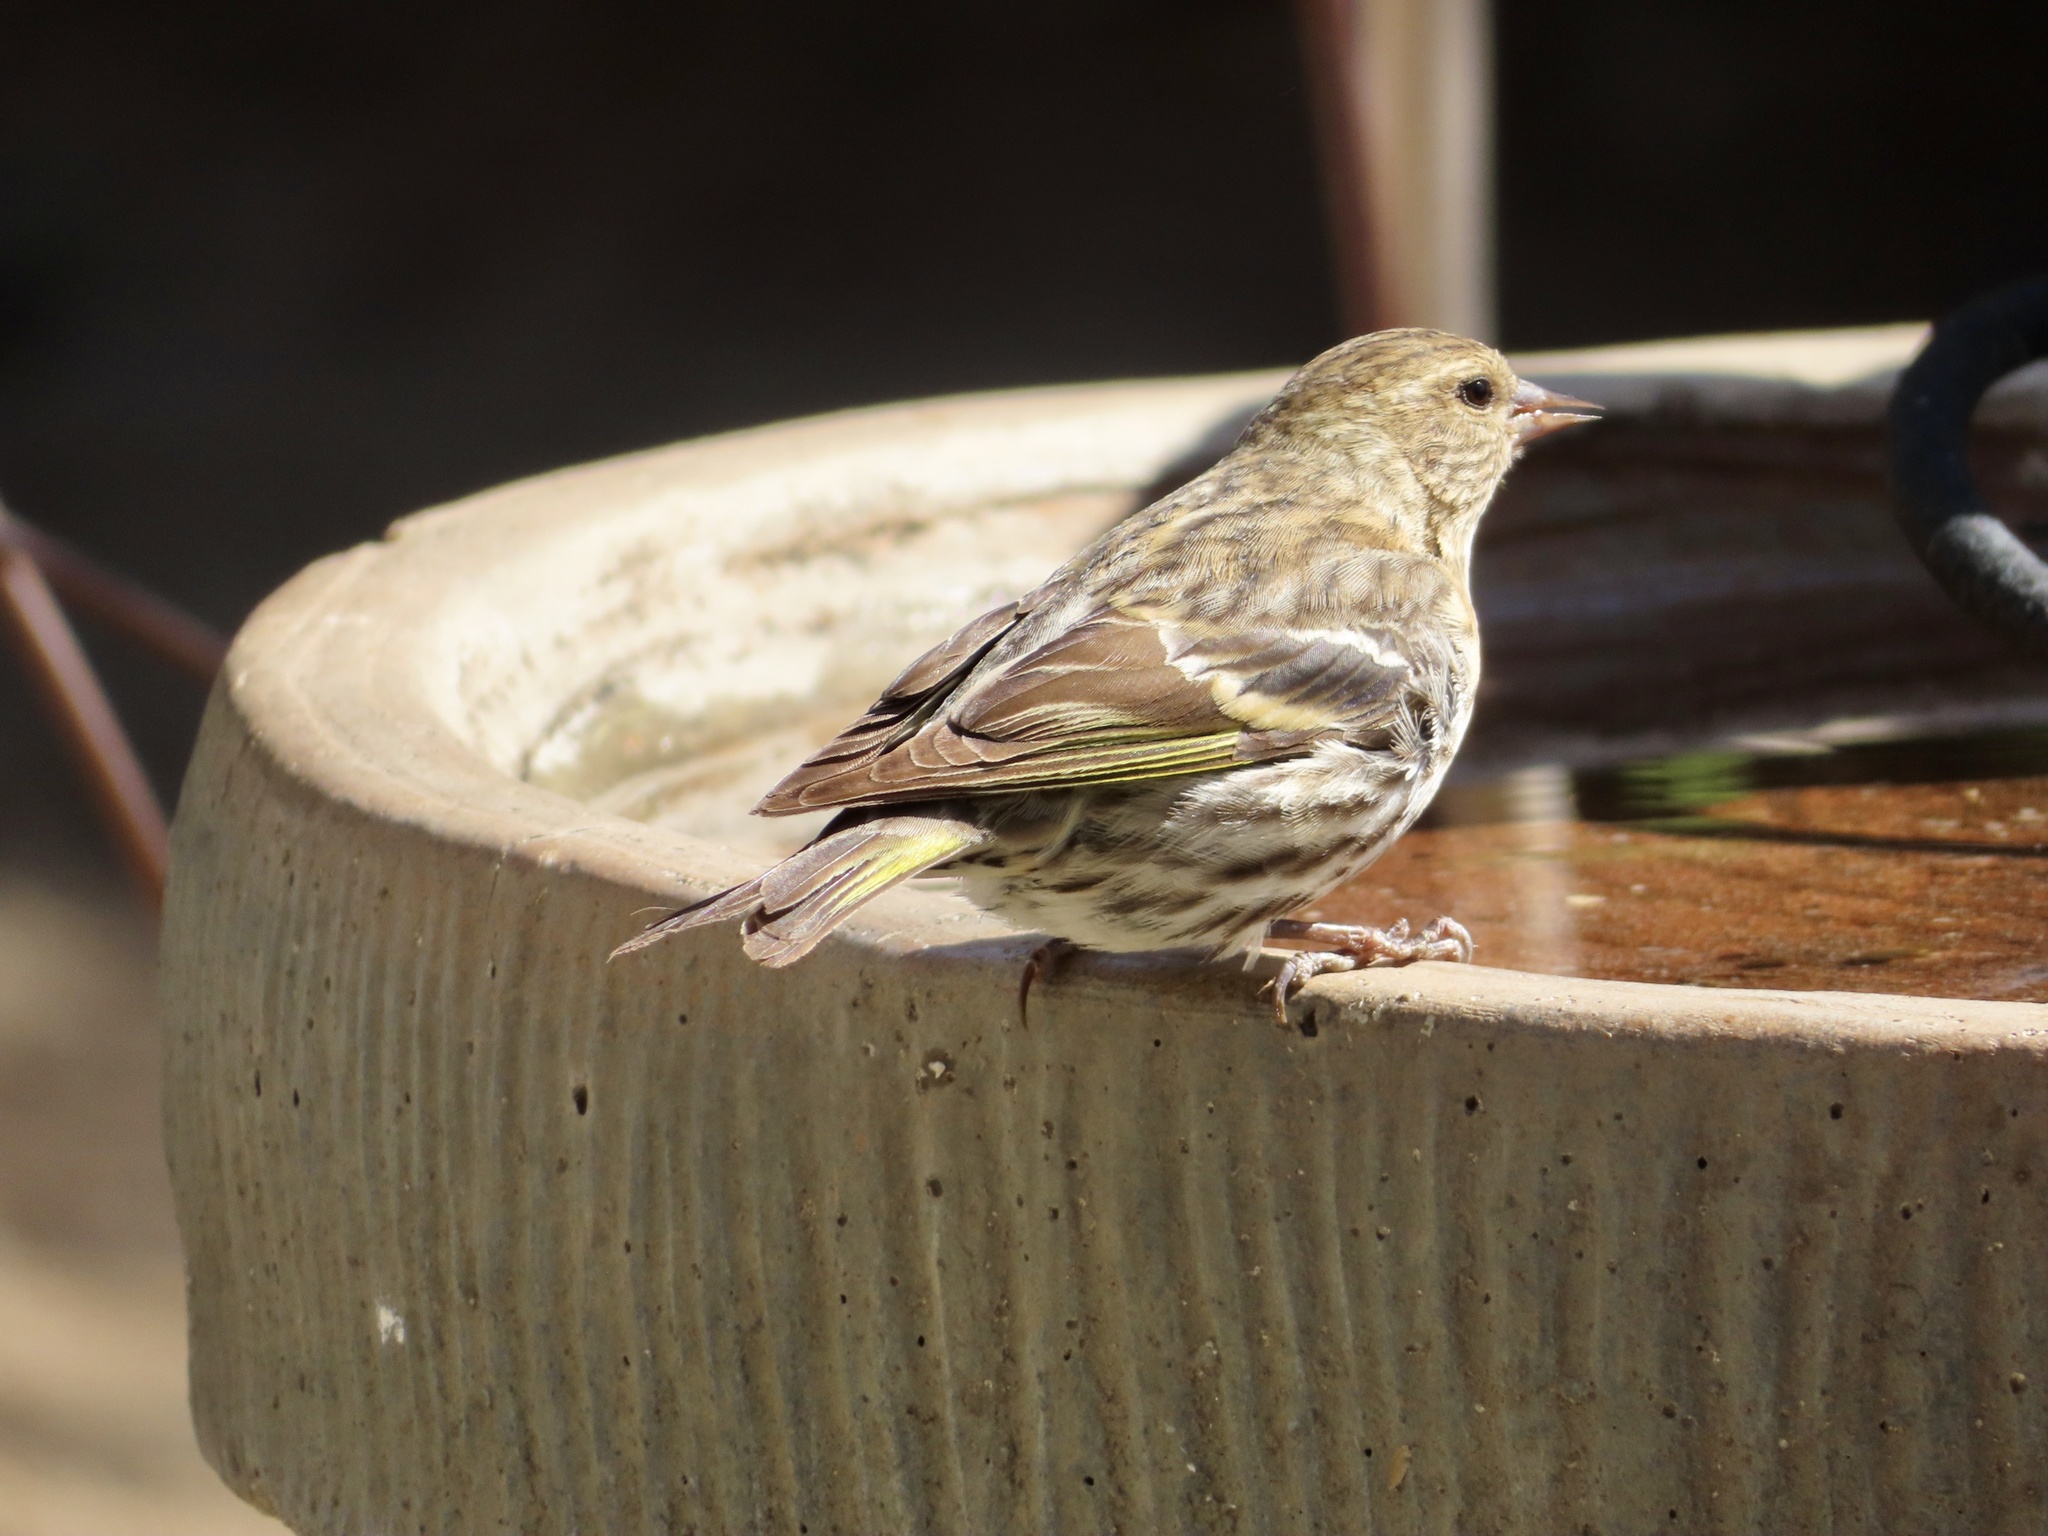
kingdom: Animalia
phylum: Chordata
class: Aves
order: Passeriformes
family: Fringillidae
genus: Spinus
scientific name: Spinus pinus
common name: Pine siskin
